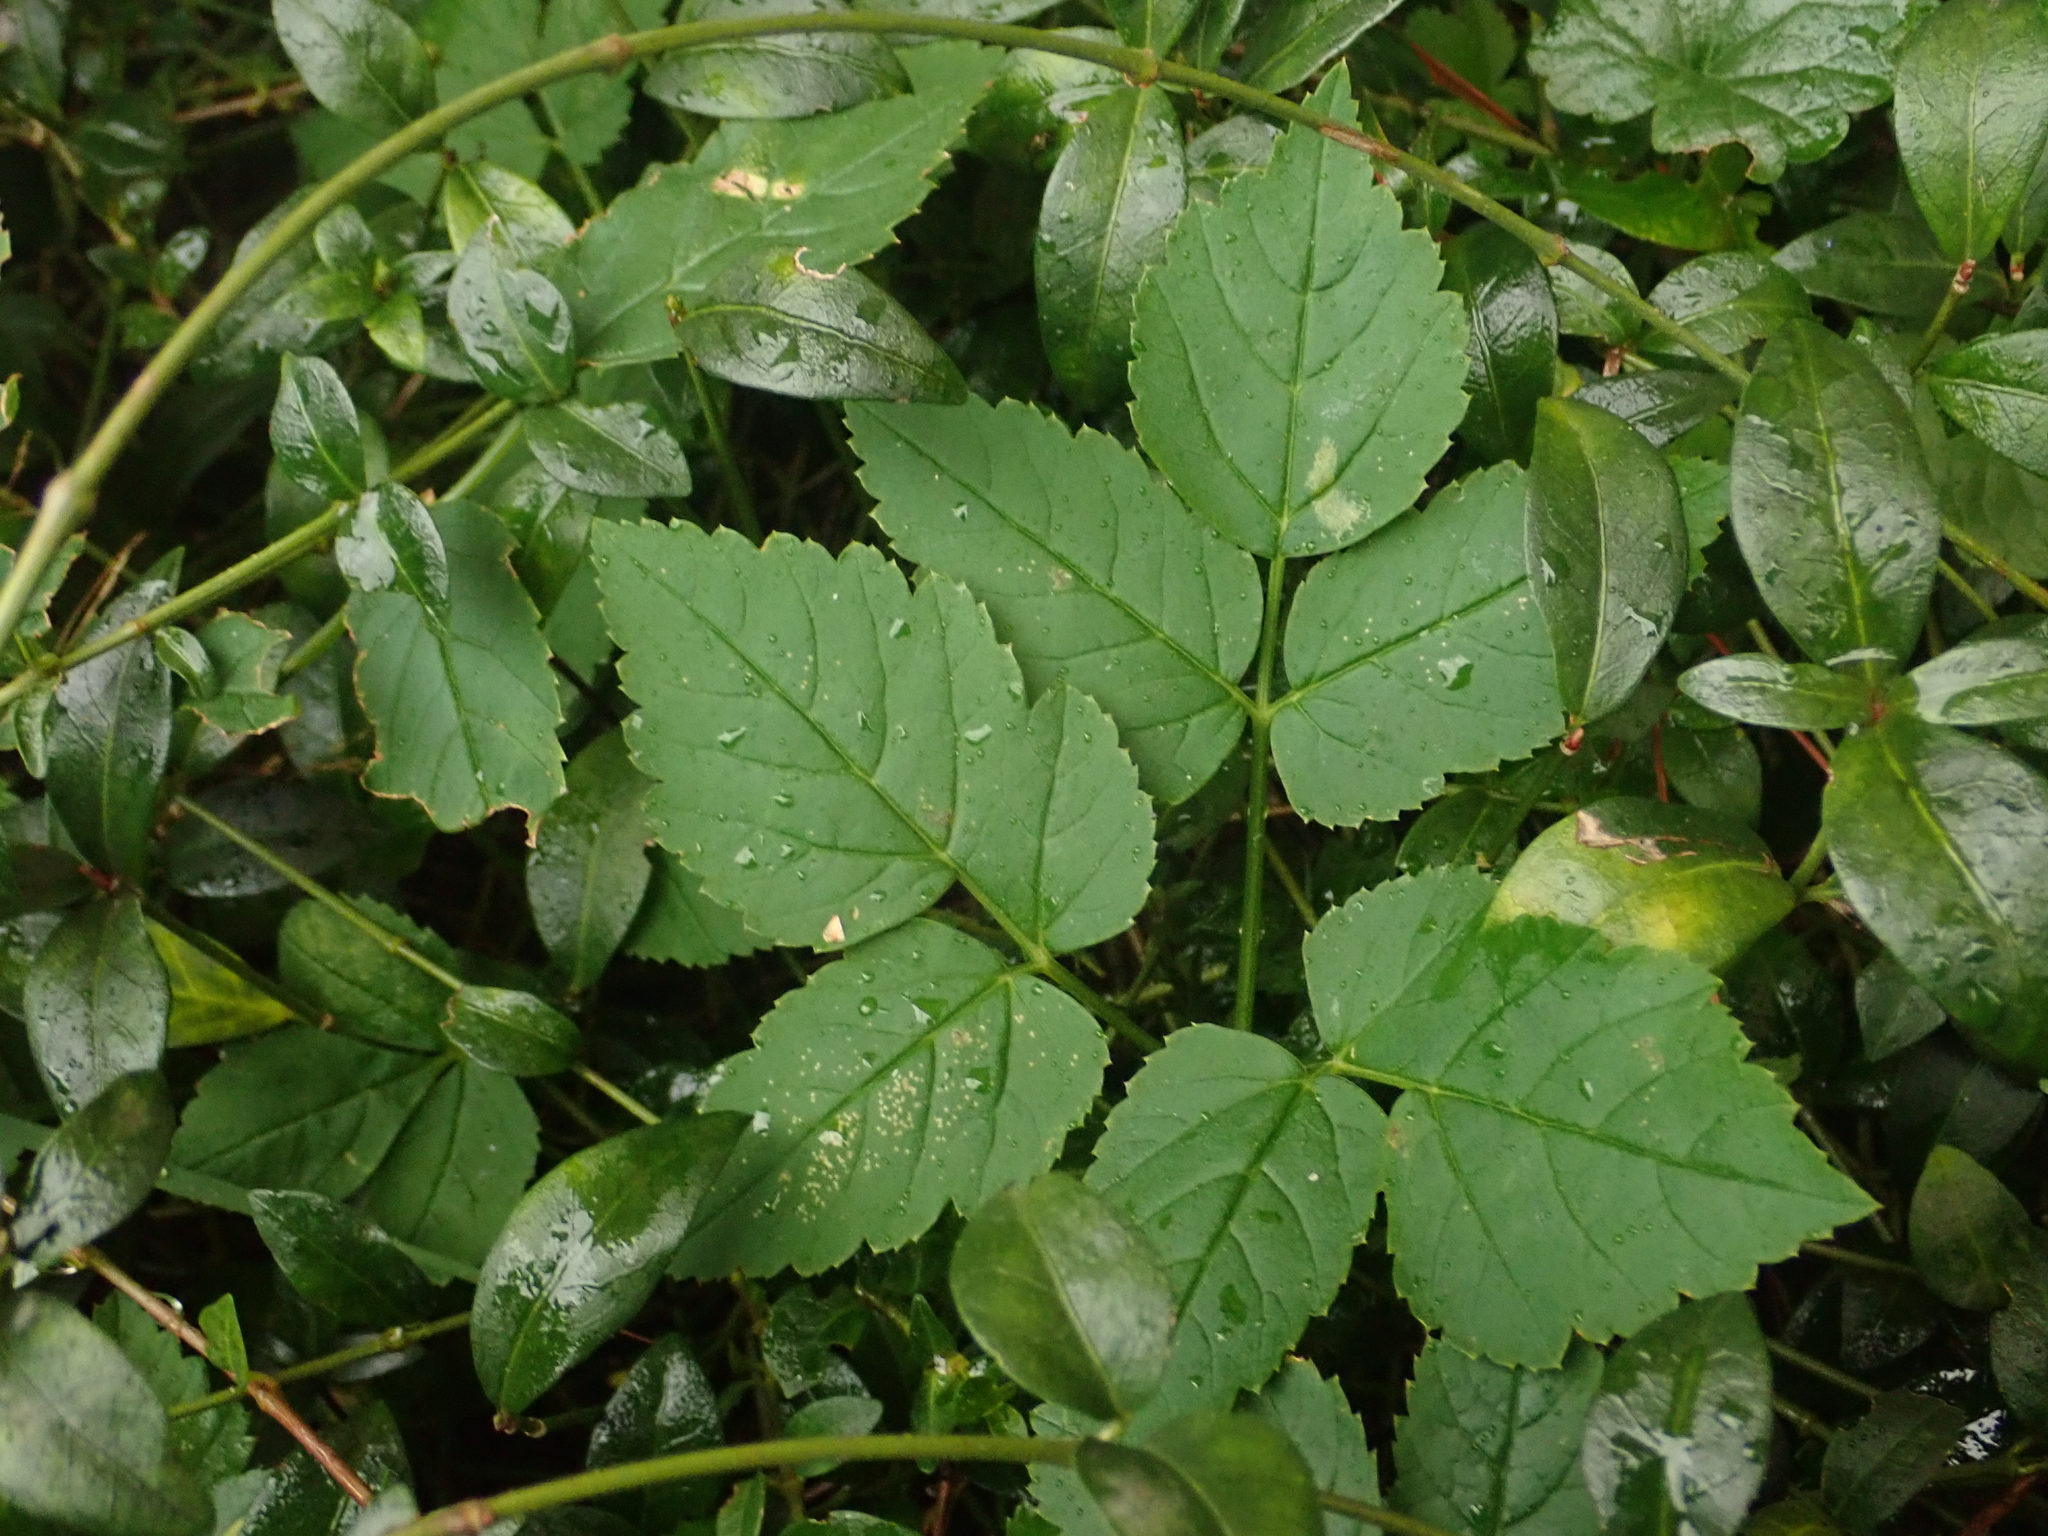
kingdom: Plantae
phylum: Tracheophyta
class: Magnoliopsida
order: Apiales
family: Apiaceae
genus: Aegopodium
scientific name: Aegopodium podagraria
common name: Ground-elder
